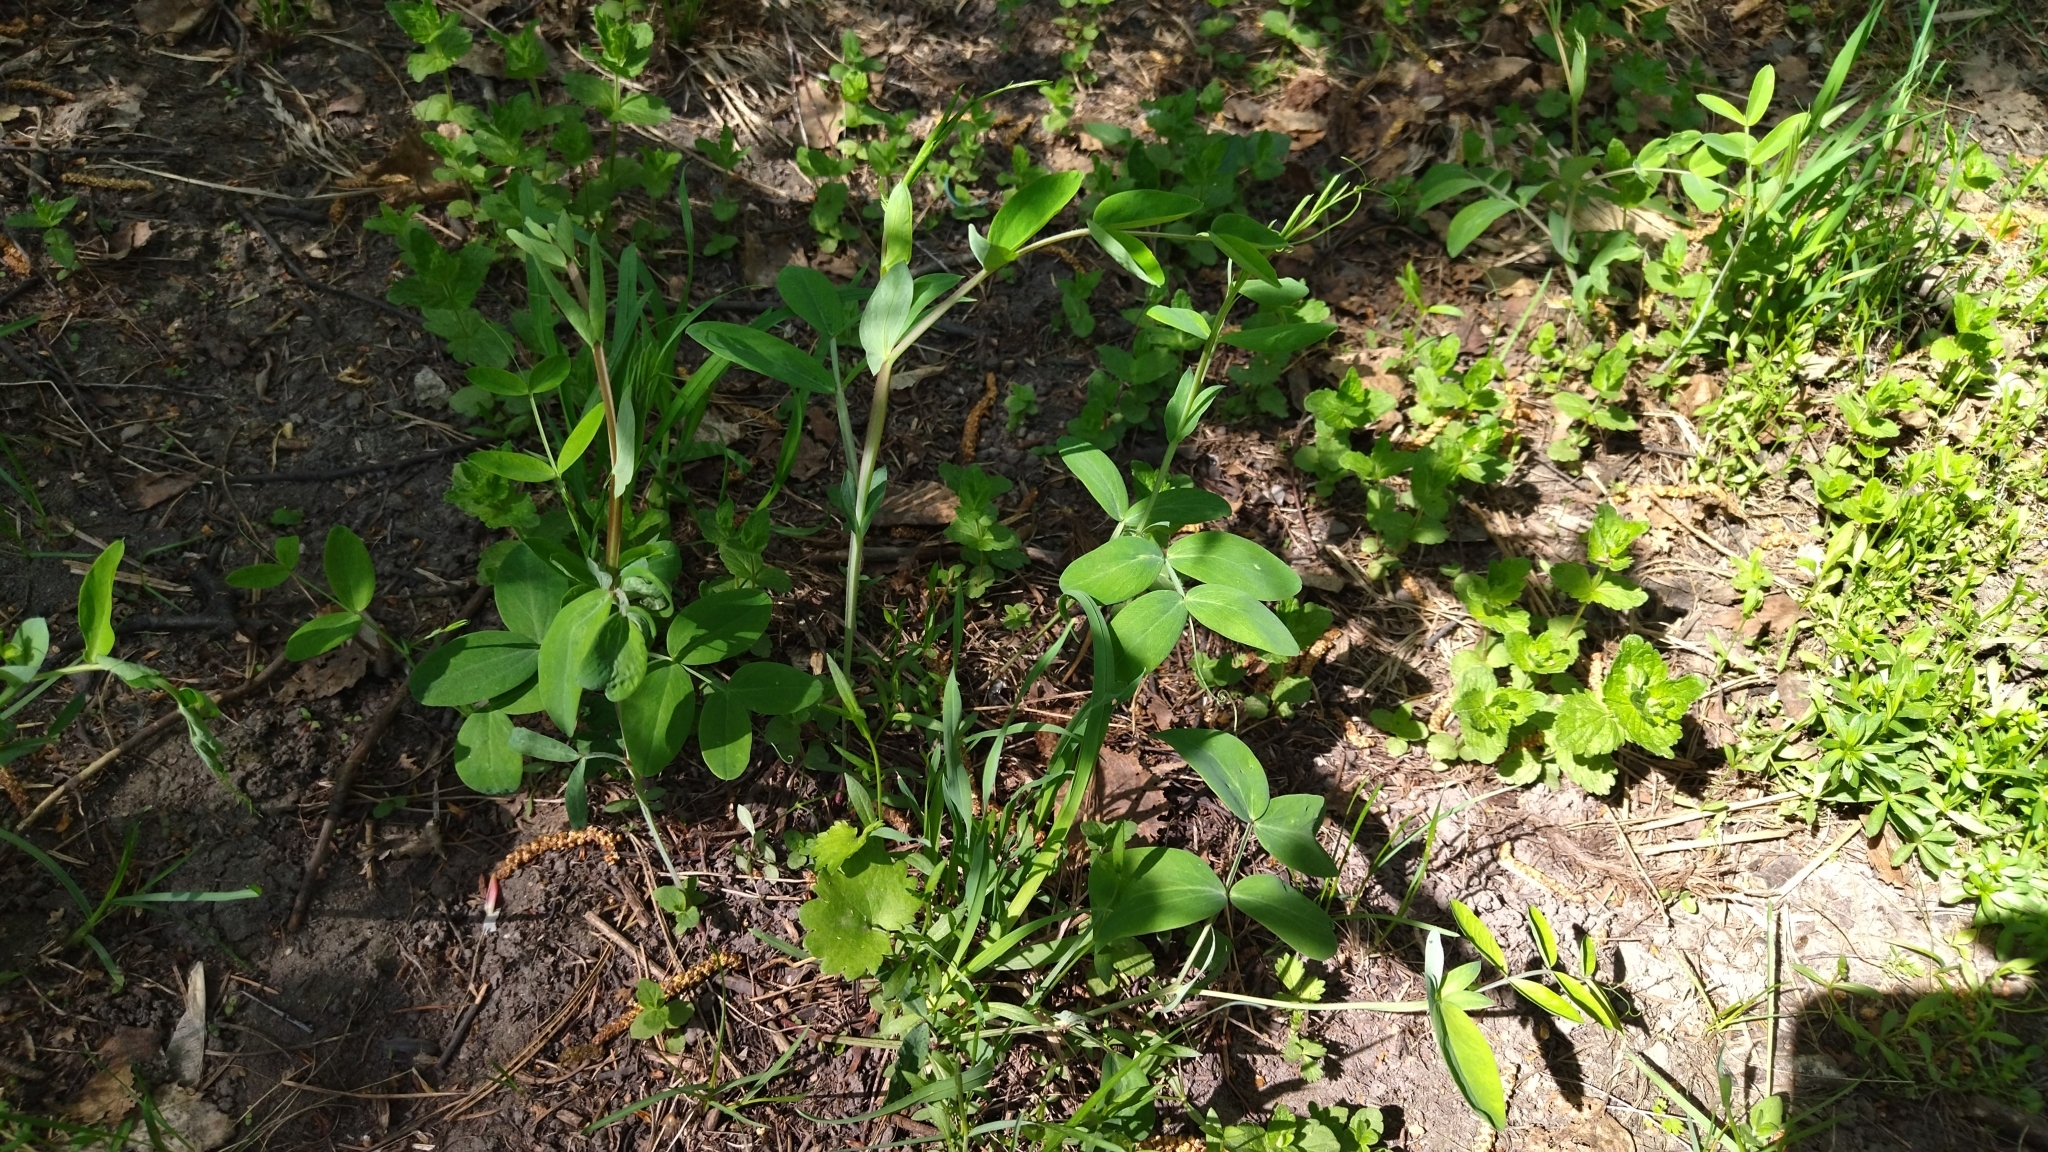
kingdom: Plantae
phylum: Tracheophyta
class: Magnoliopsida
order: Fabales
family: Fabaceae
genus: Lathyrus
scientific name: Lathyrus pisiformis
